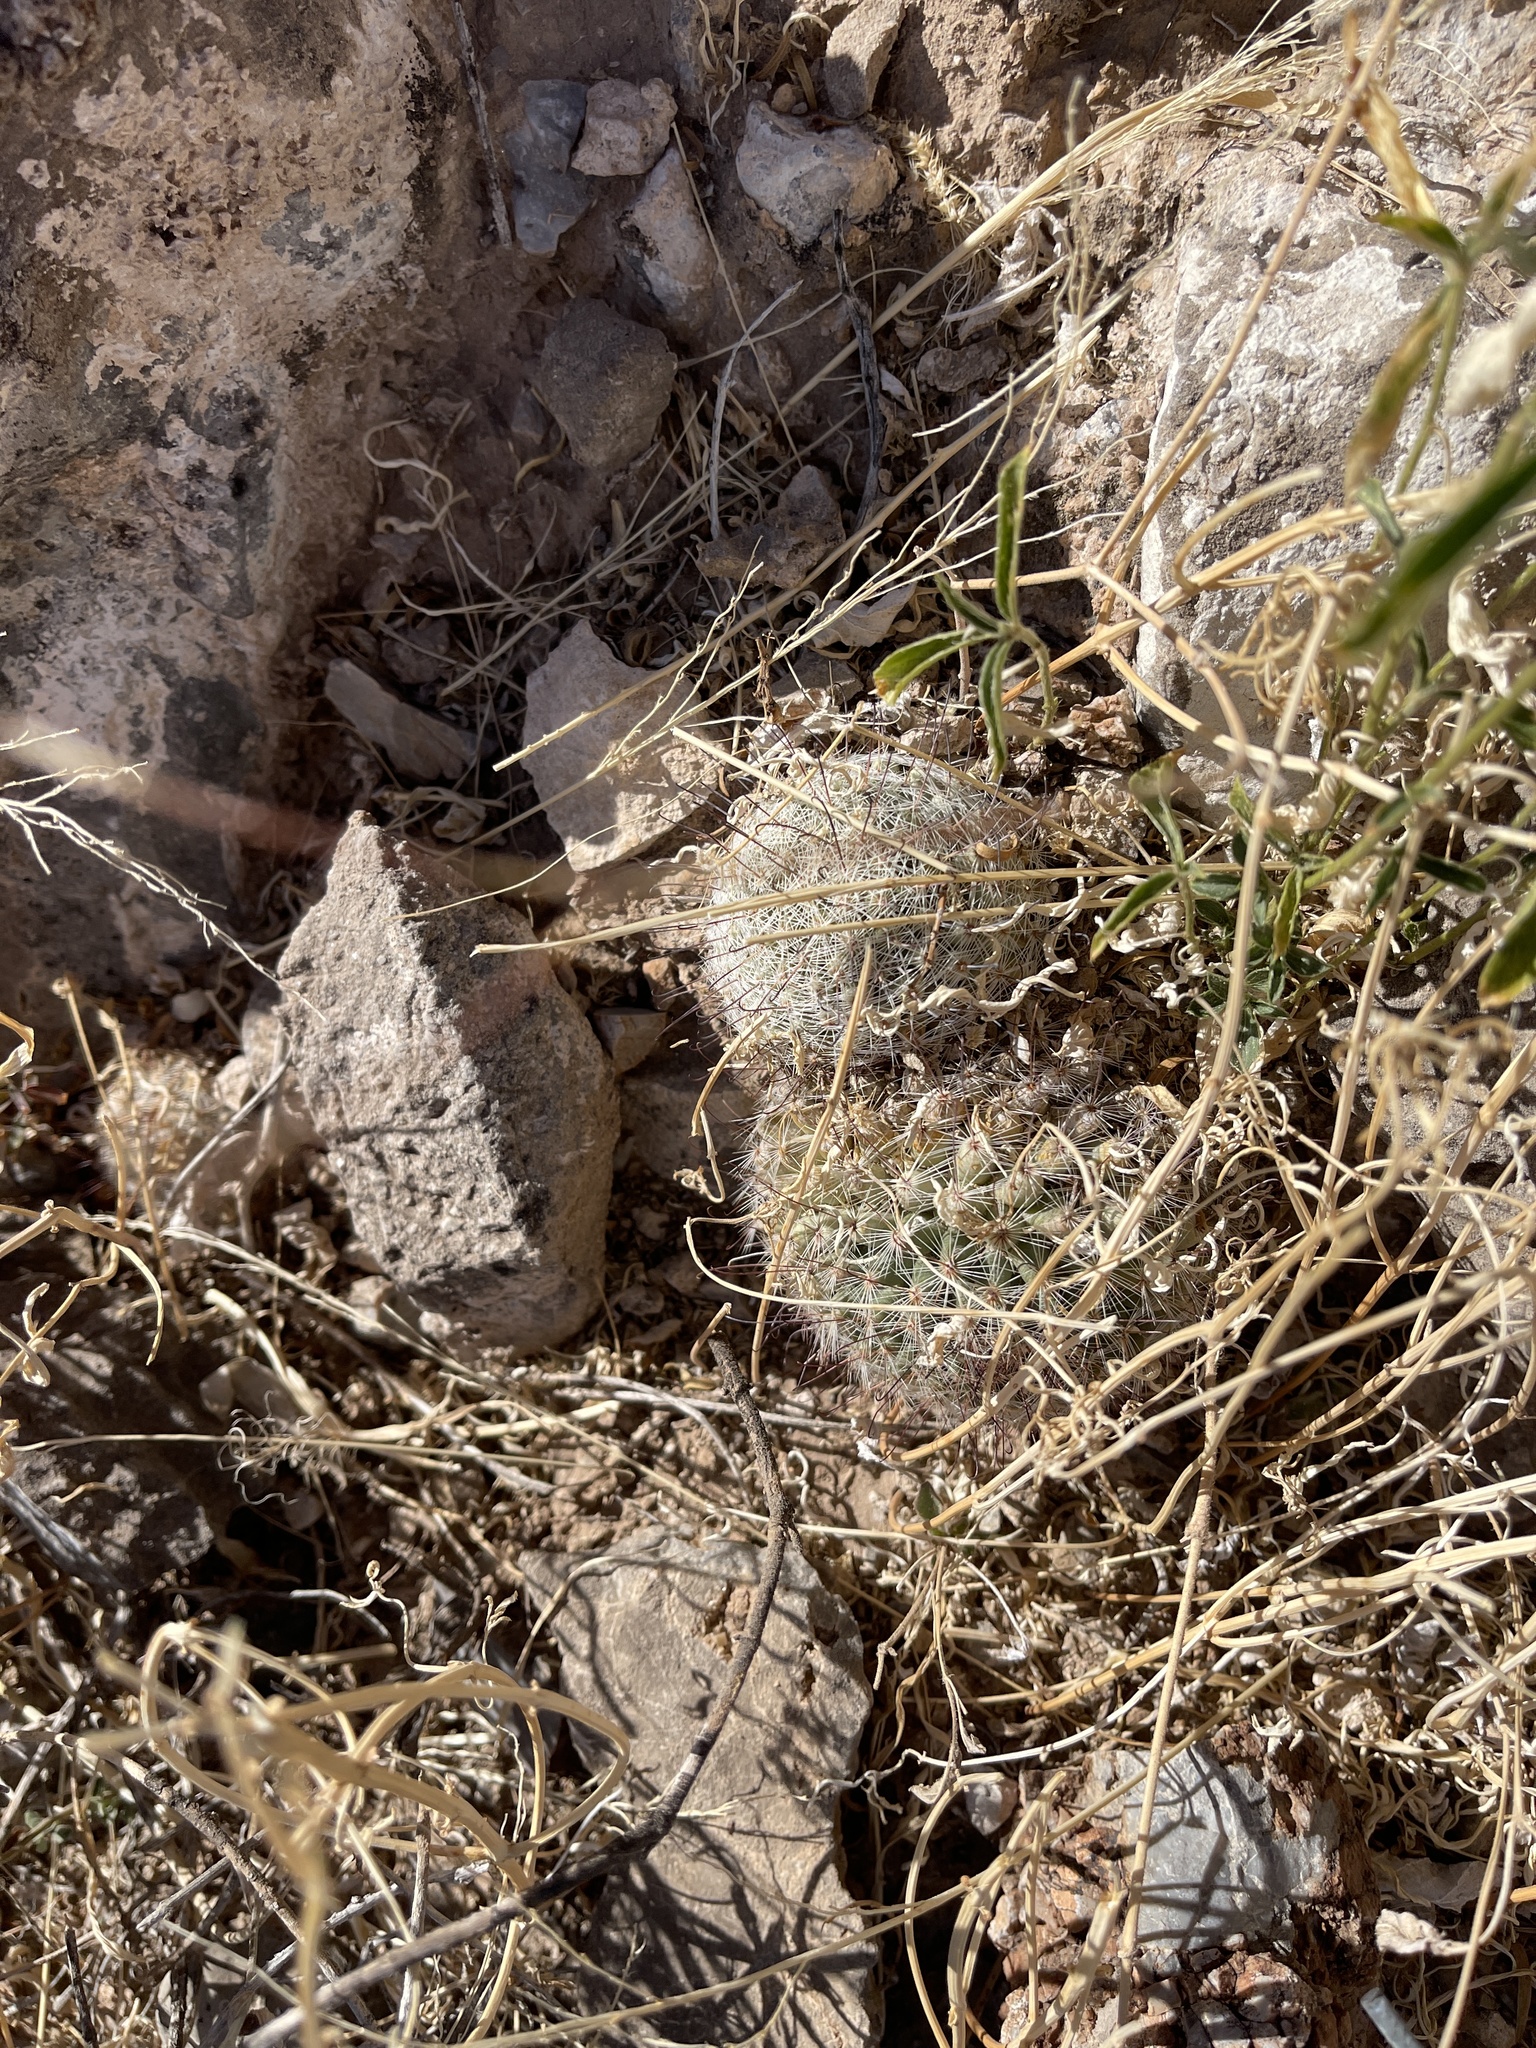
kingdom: Plantae
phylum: Tracheophyta
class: Magnoliopsida
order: Caryophyllales
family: Cactaceae
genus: Cochemiea
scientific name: Cochemiea grahamii
